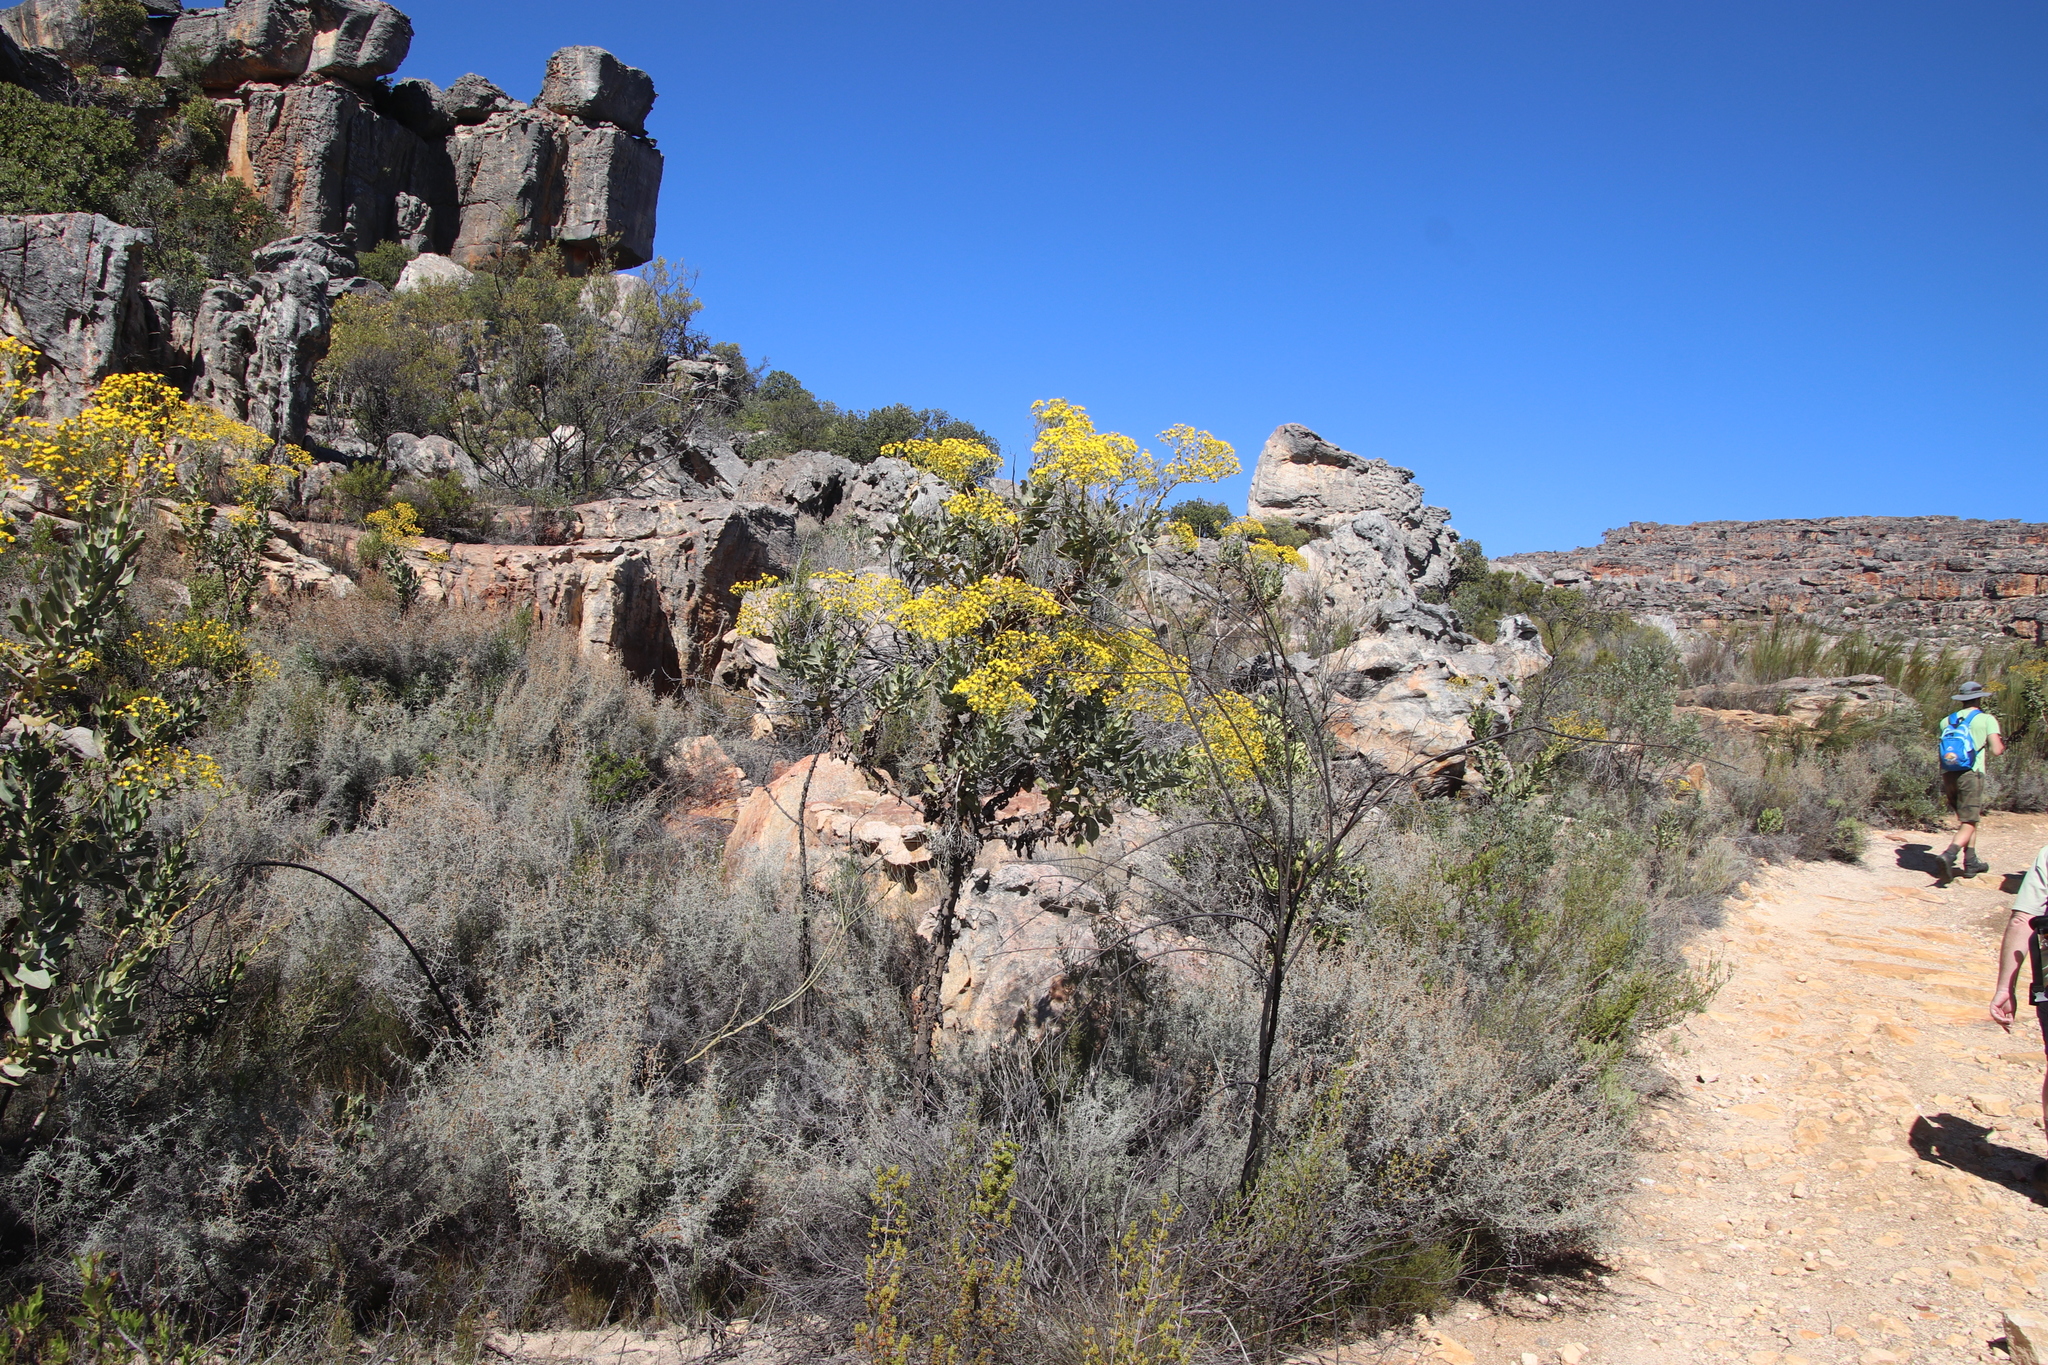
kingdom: Plantae
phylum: Tracheophyta
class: Magnoliopsida
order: Asterales
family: Asteraceae
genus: Othonna
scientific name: Othonna parviflora
